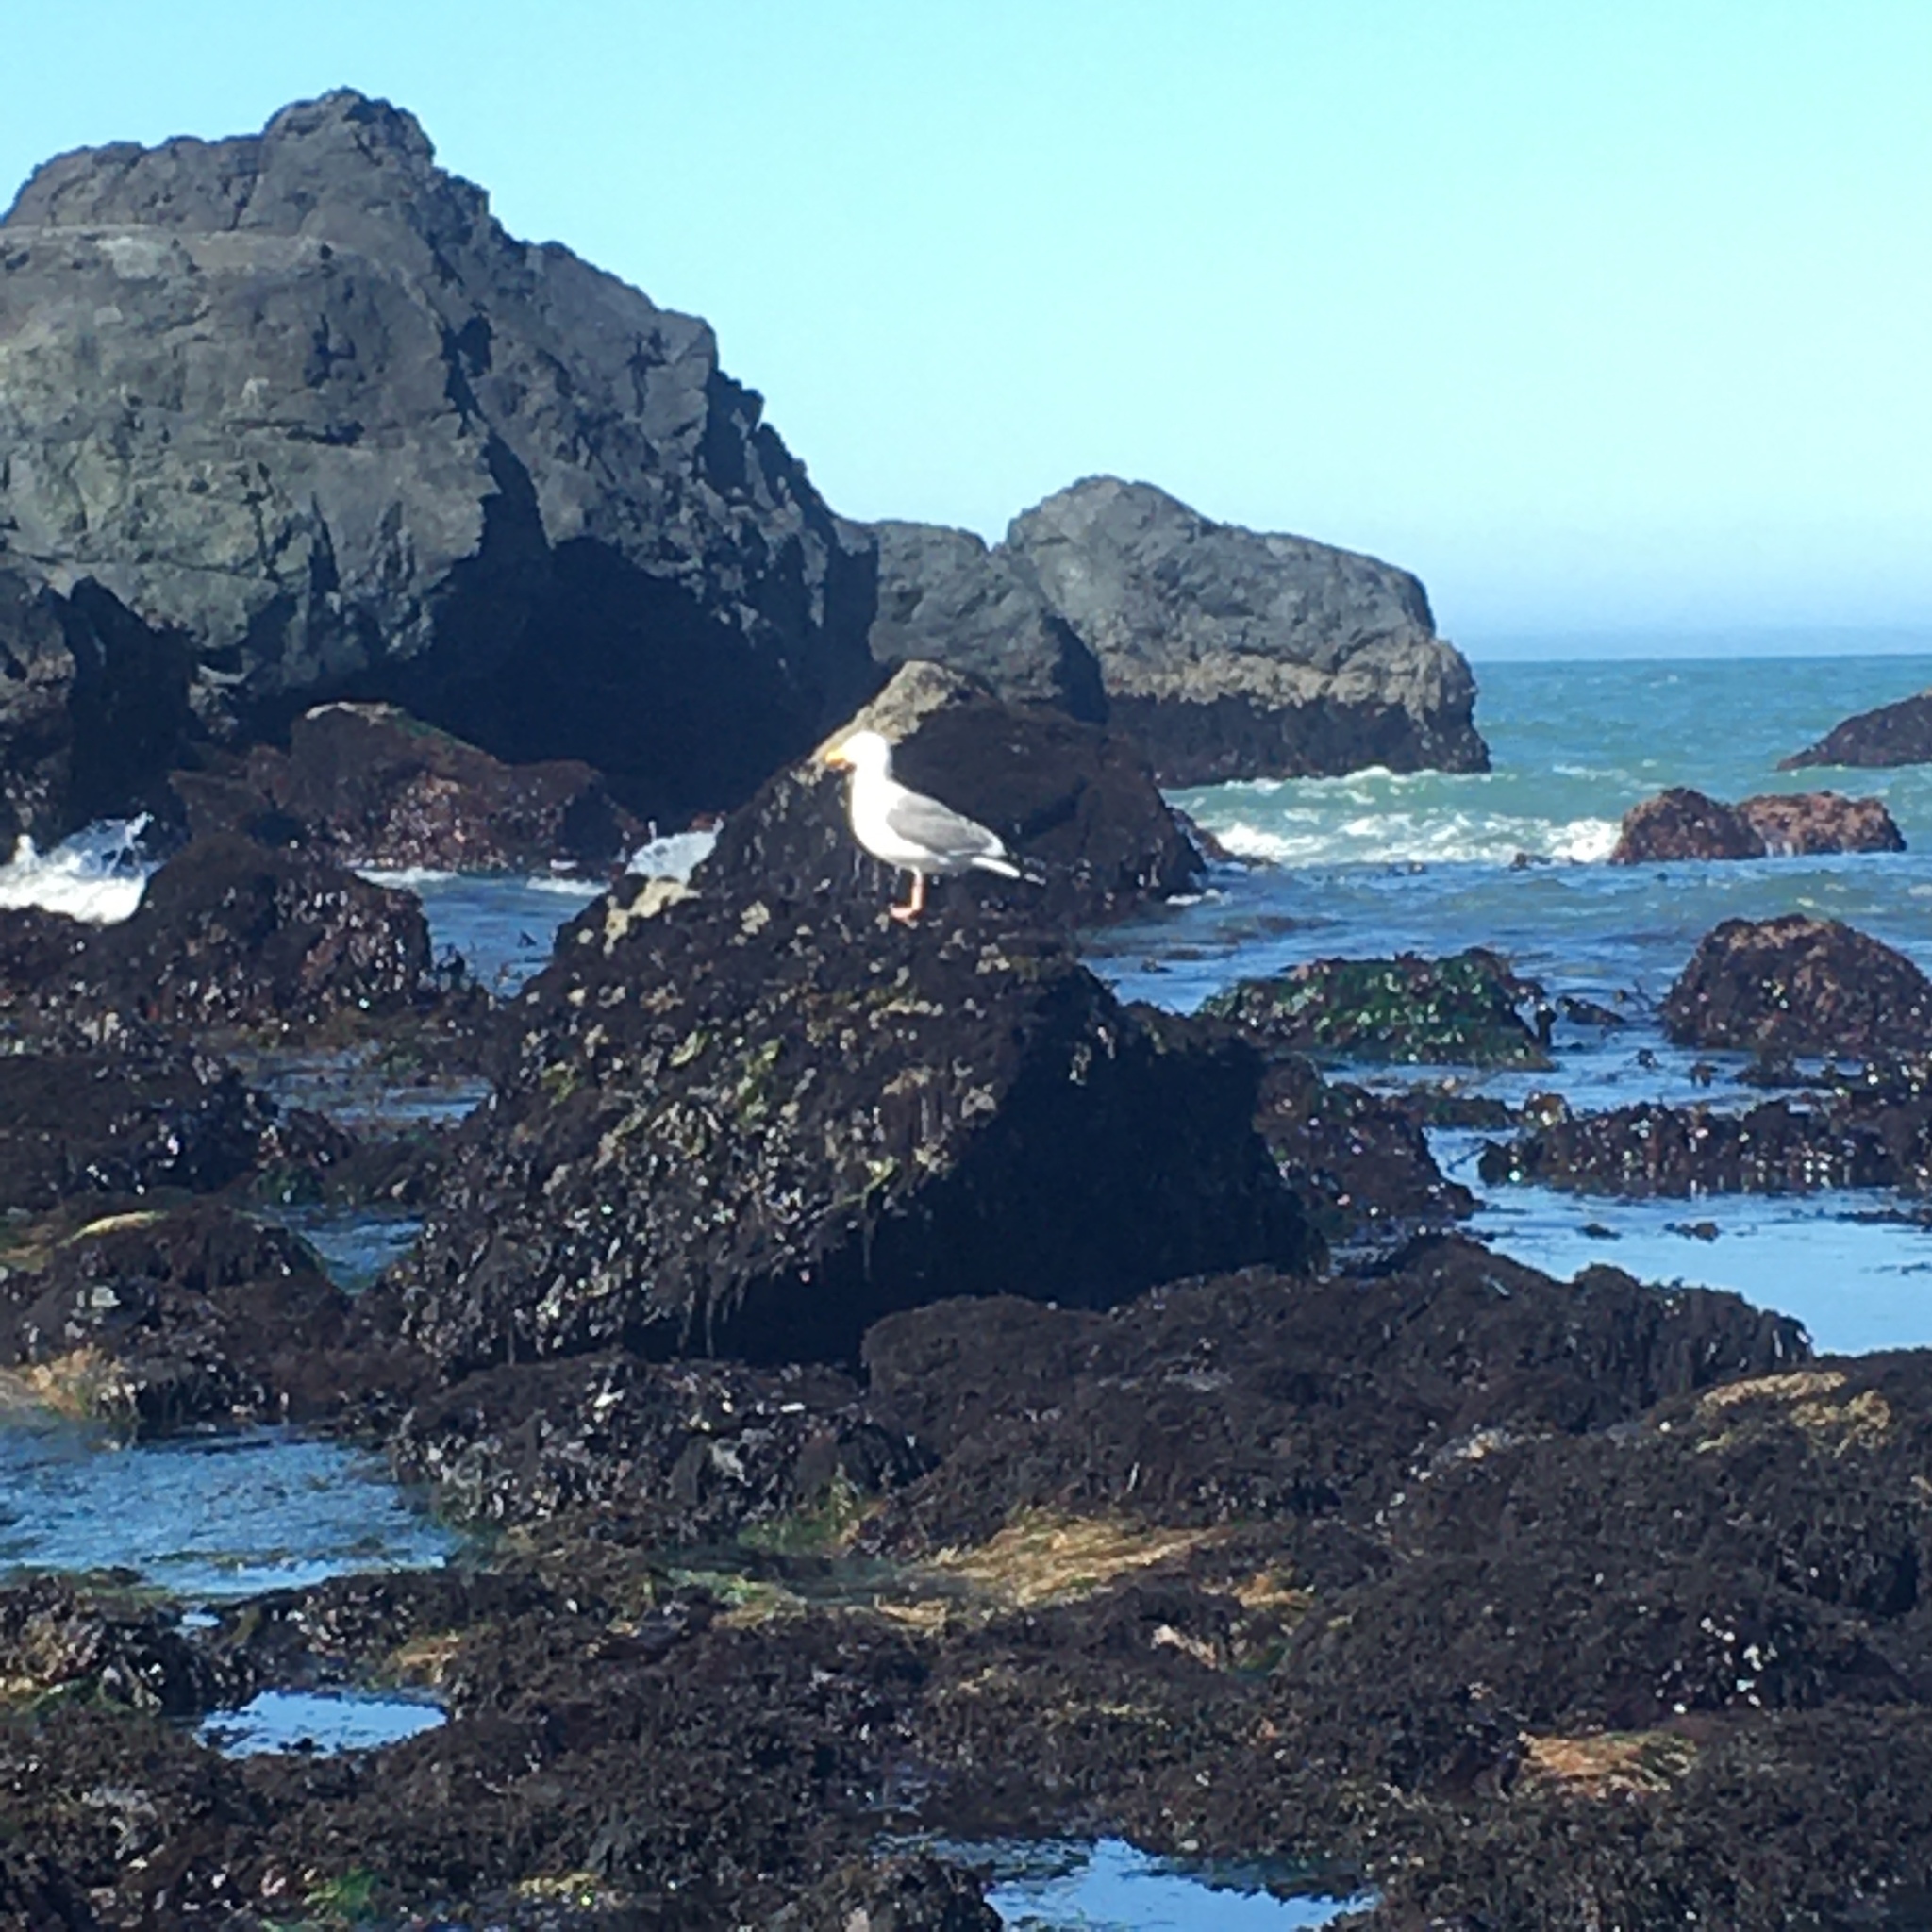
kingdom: Animalia
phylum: Chordata
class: Aves
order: Charadriiformes
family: Laridae
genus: Larus
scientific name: Larus occidentalis
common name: Western gull
